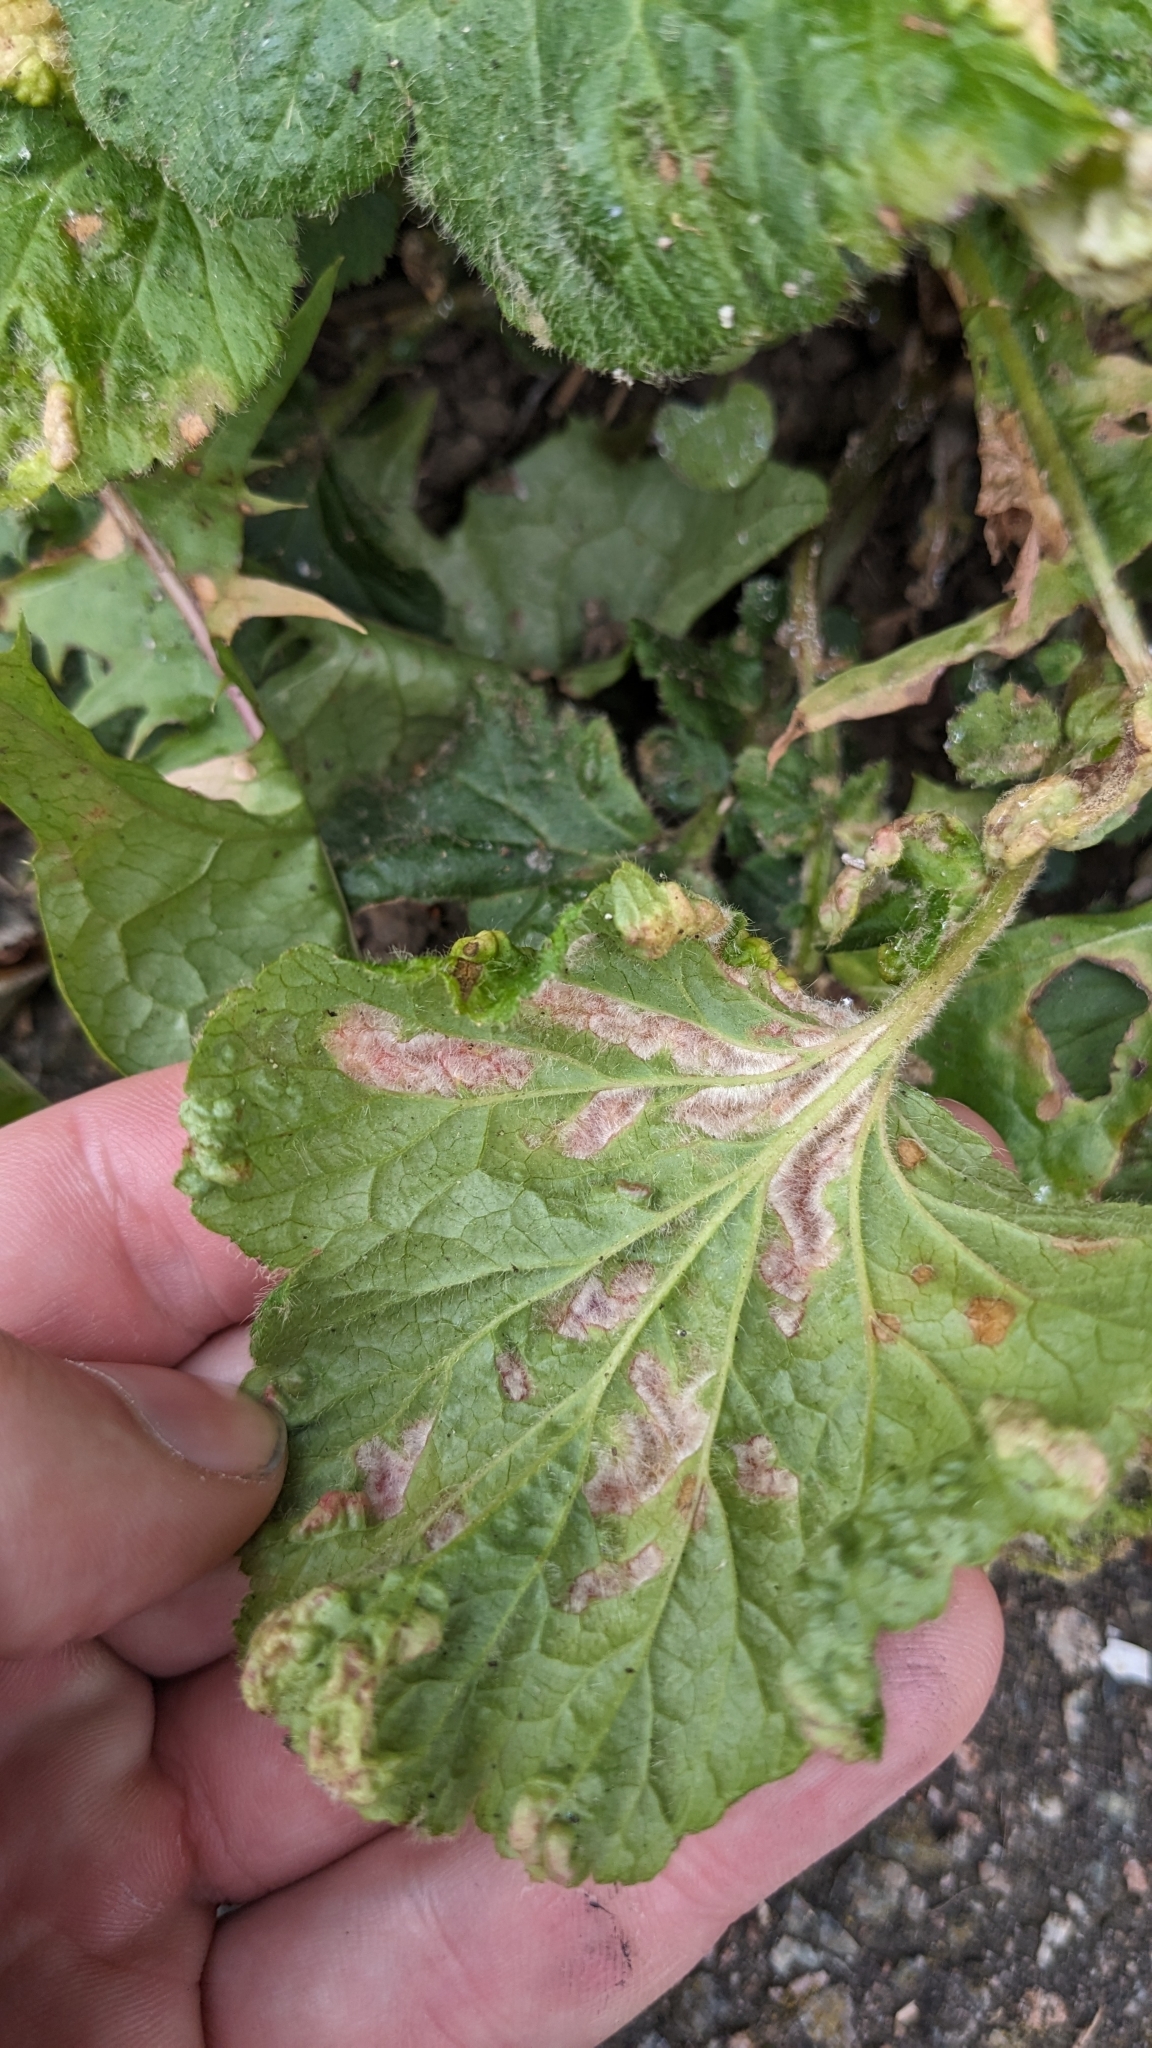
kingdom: Animalia
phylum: Arthropoda
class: Arachnida
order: Trombidiformes
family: Eriophyidae
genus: Cecidophyes
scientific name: Cecidophyes nudus
